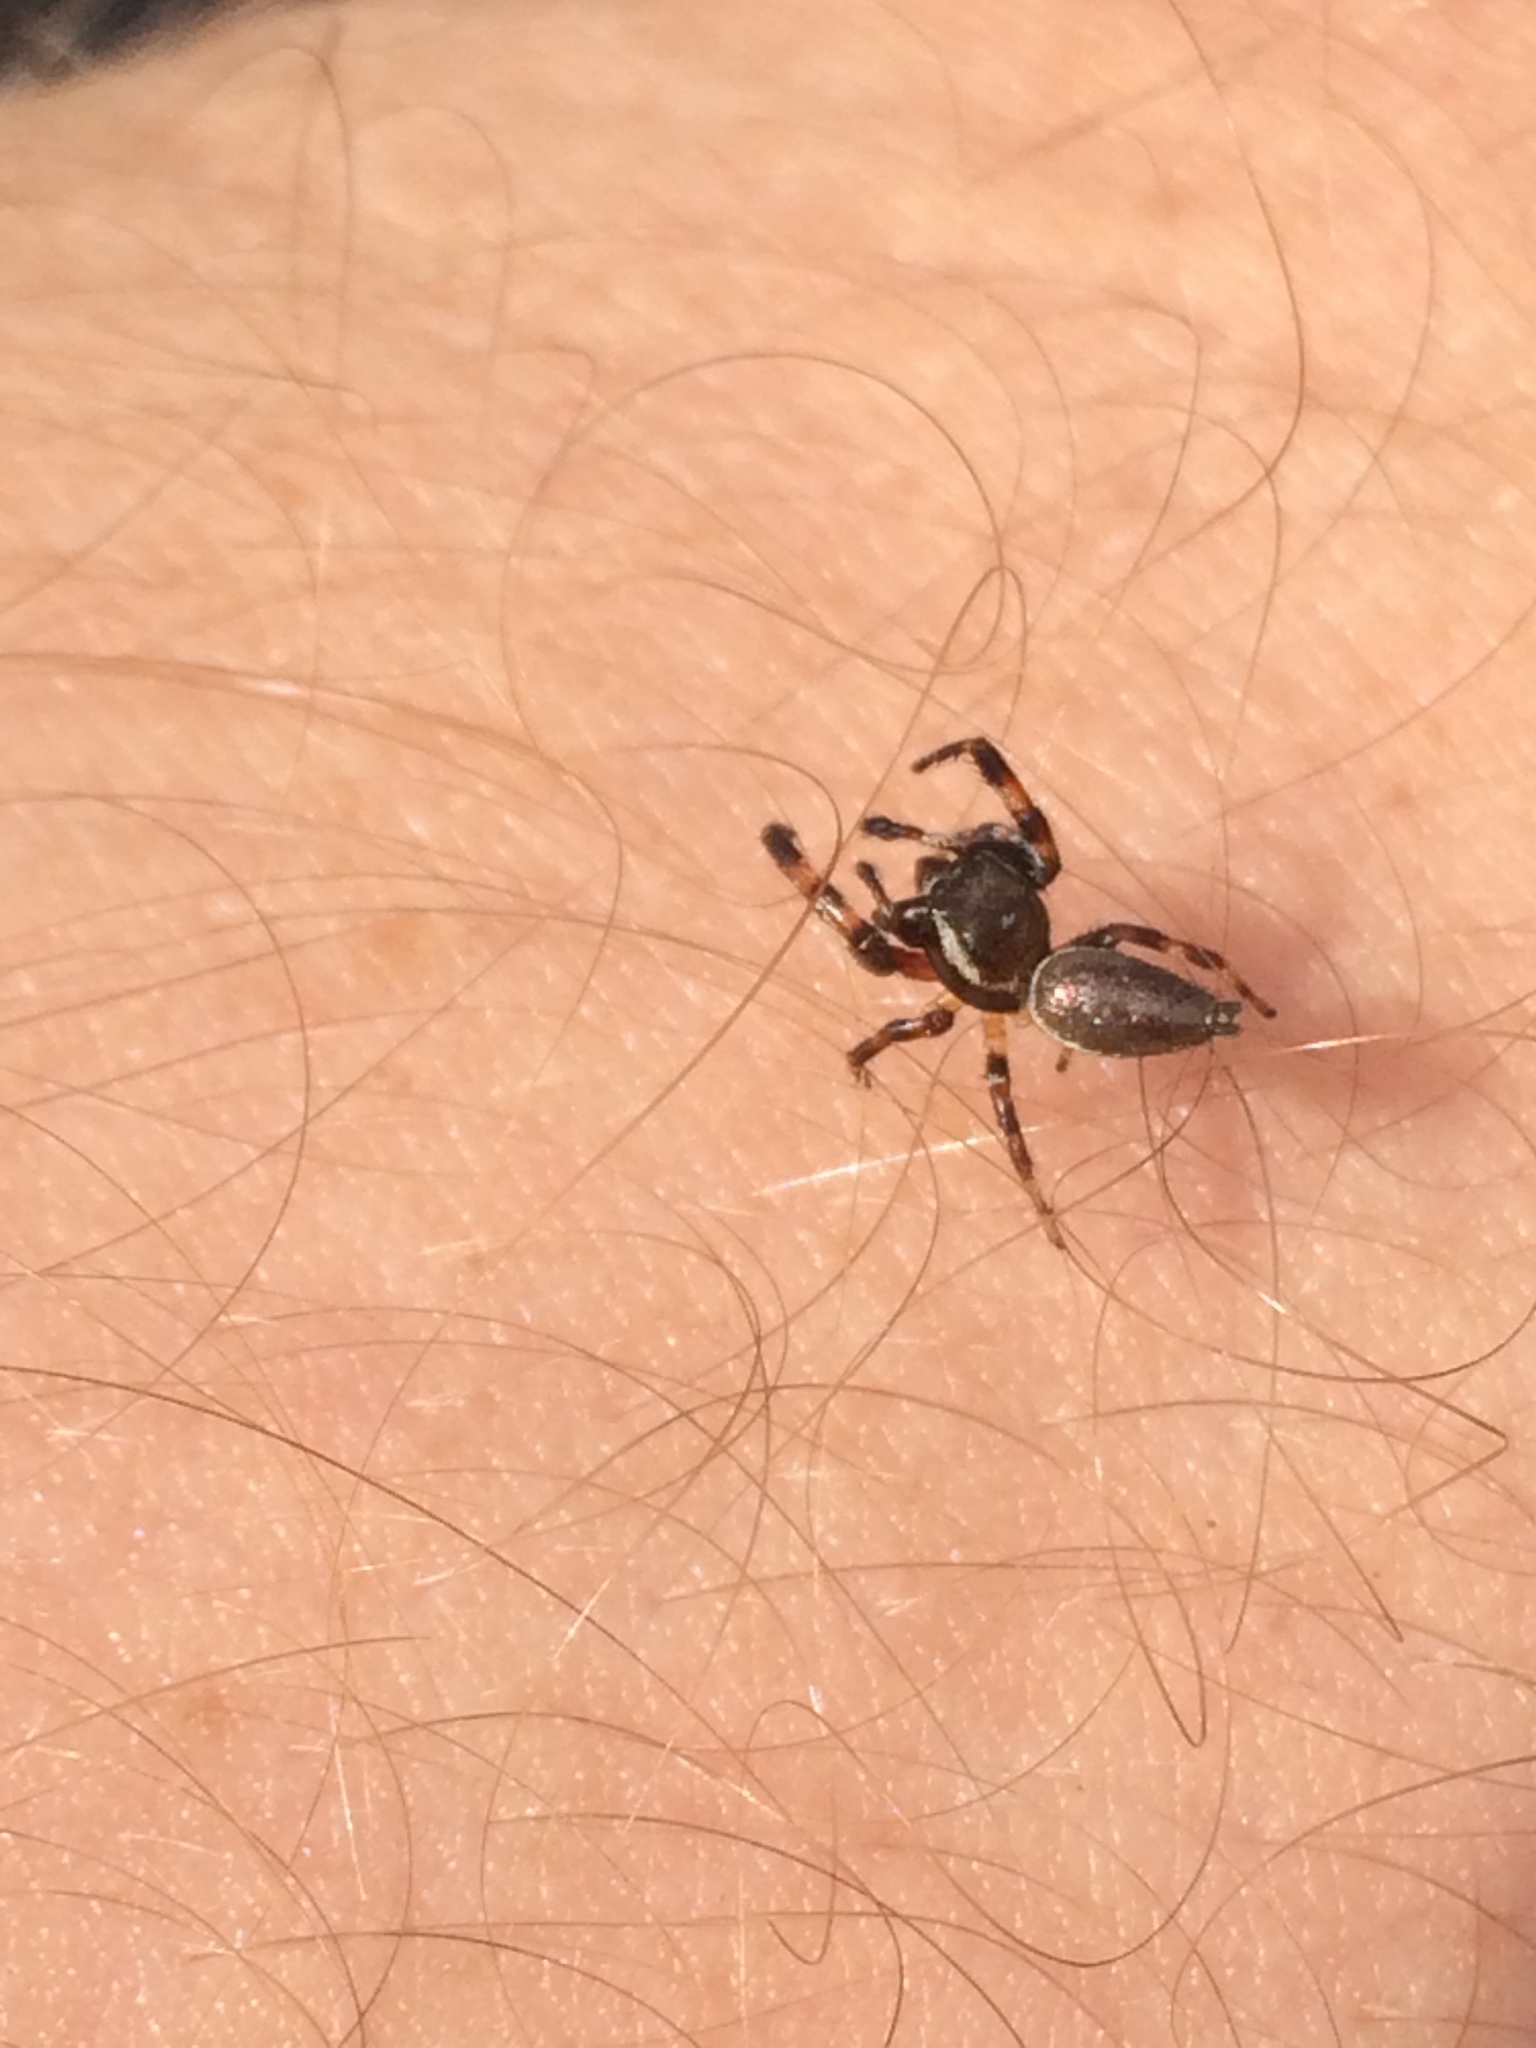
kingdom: Animalia
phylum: Arthropoda
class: Arachnida
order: Araneae
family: Salticidae
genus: Eris
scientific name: Eris floridana
